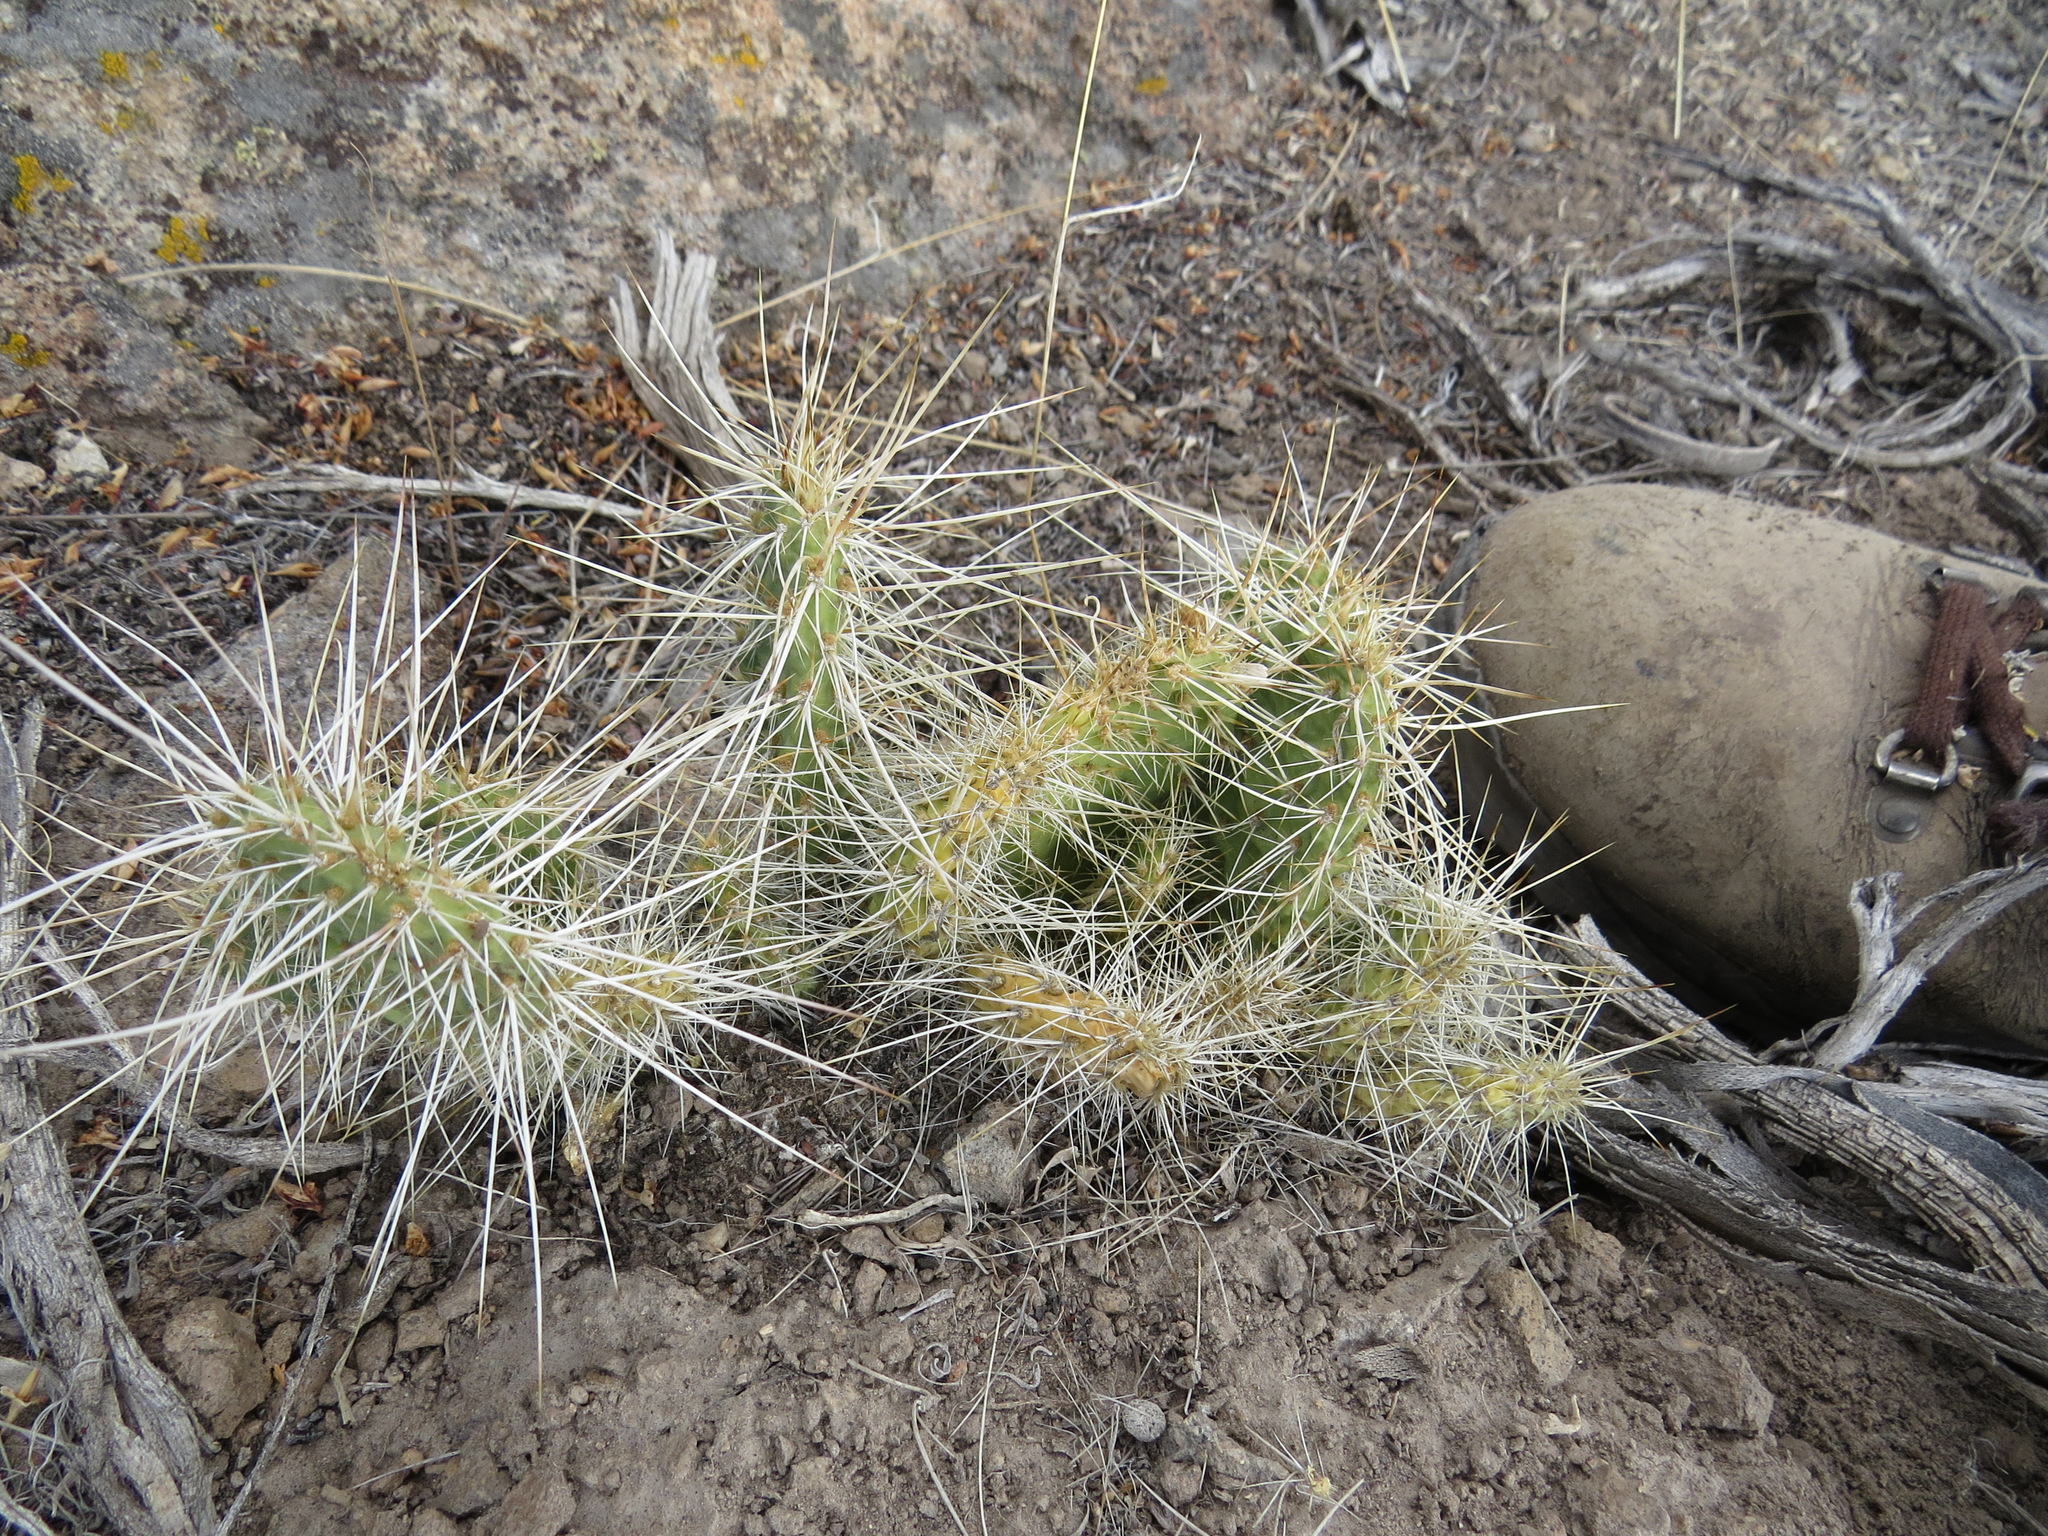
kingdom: Plantae
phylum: Tracheophyta
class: Magnoliopsida
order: Caryophyllales
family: Cactaceae
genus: Opuntia
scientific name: Opuntia polyacantha
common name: Plains prickly-pear
